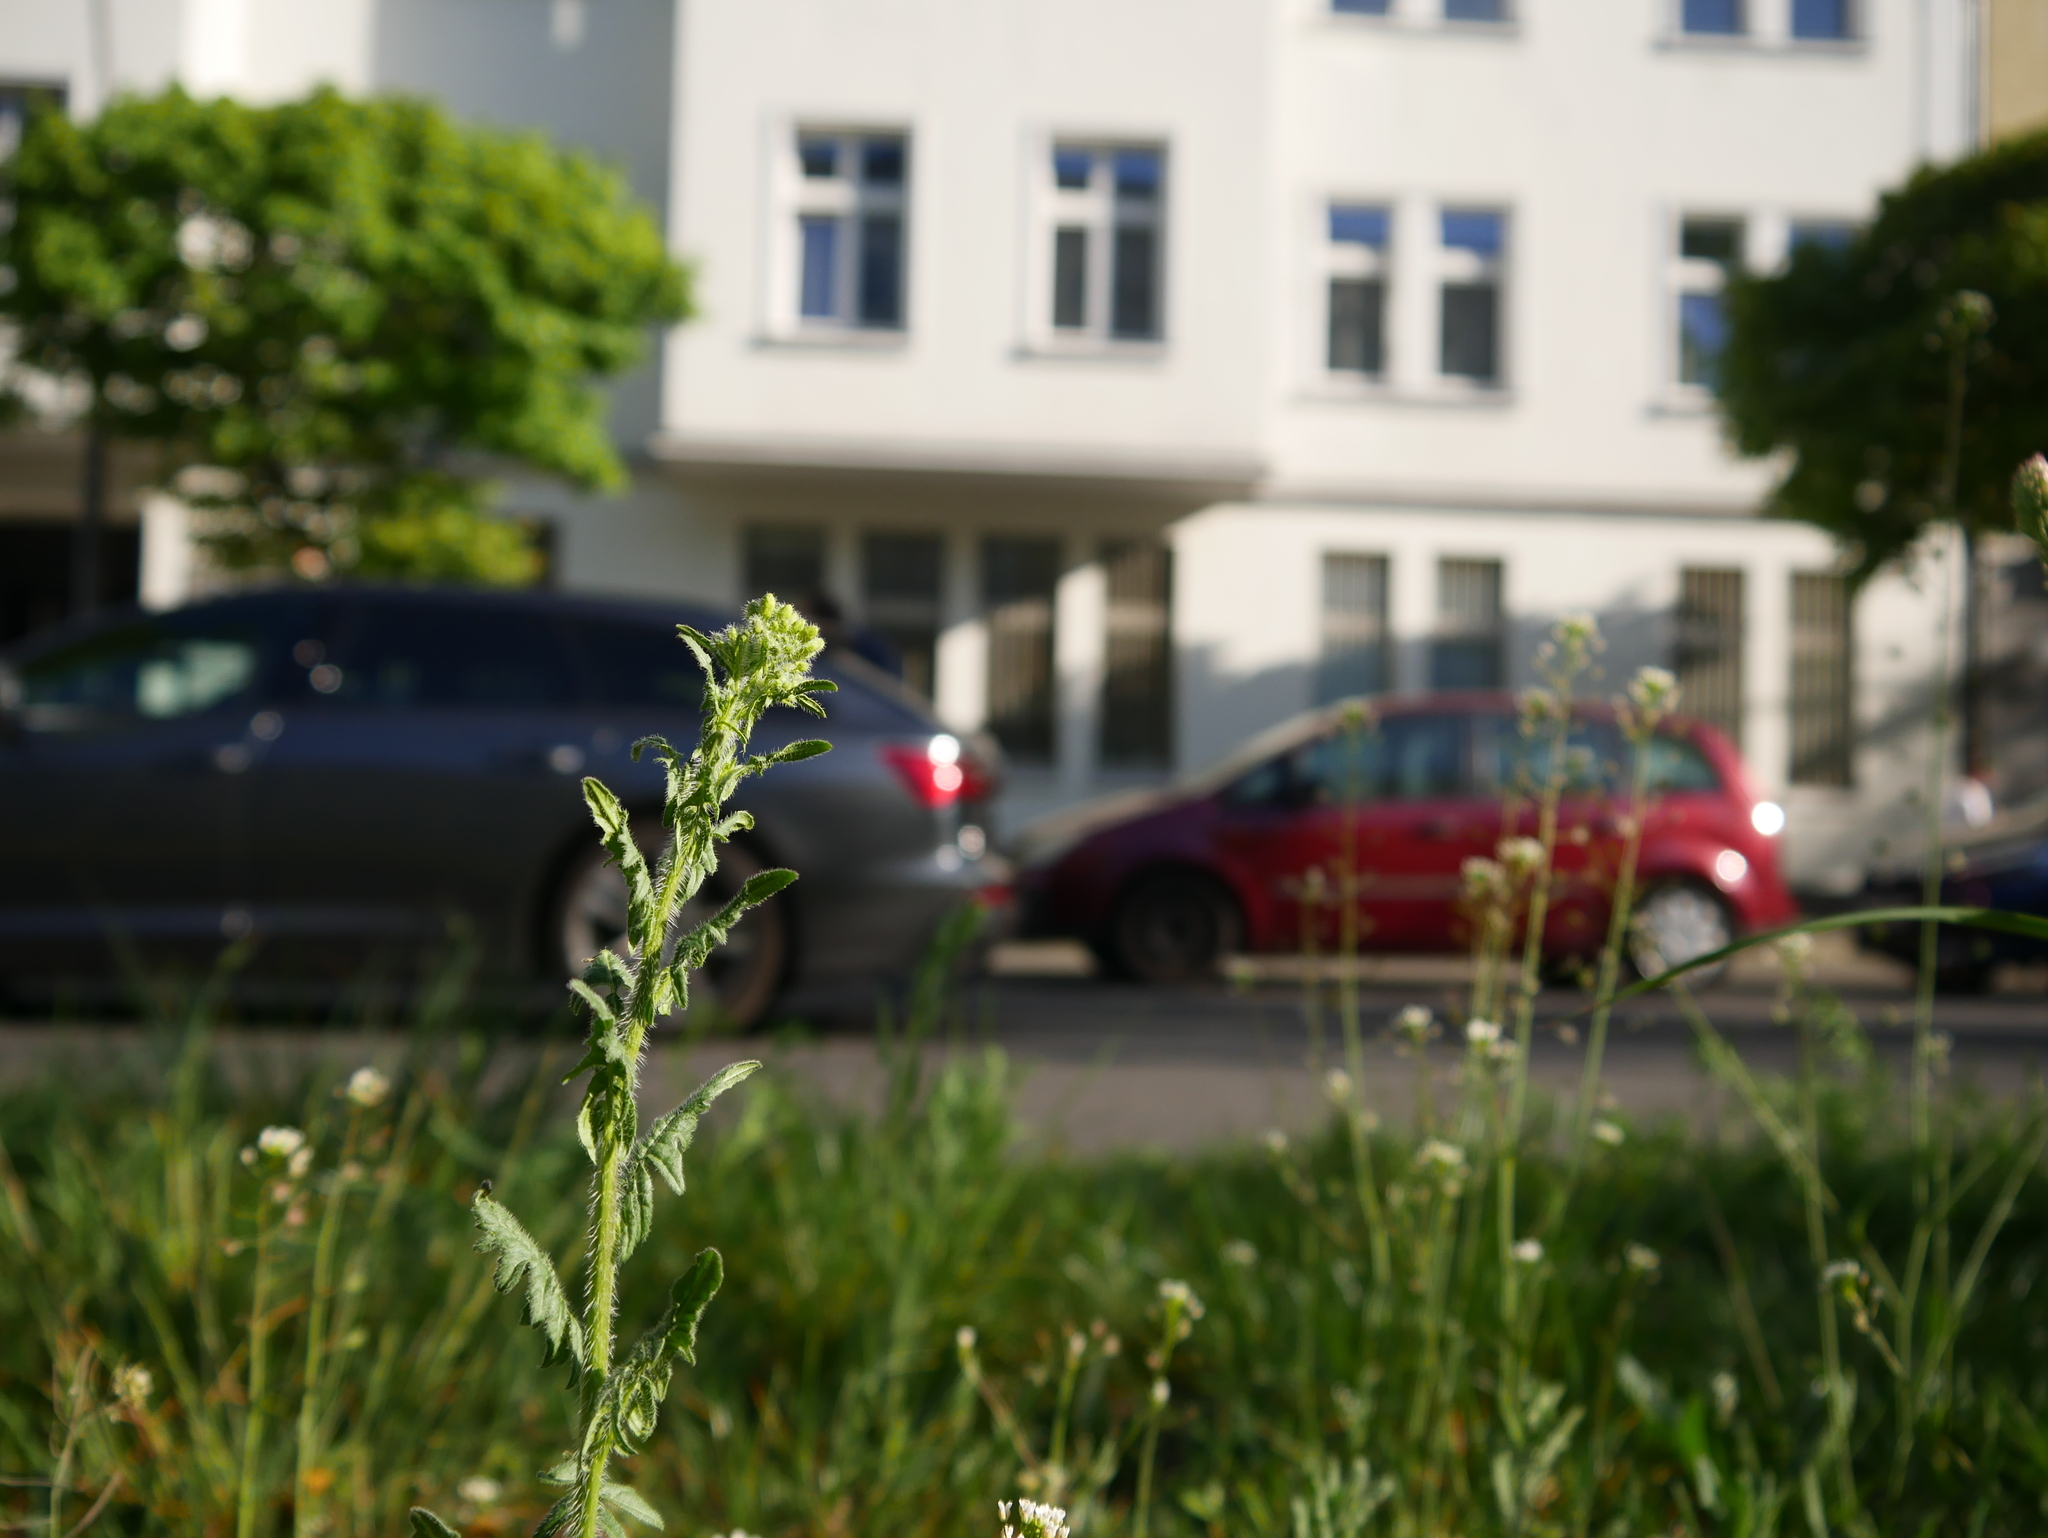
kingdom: Plantae
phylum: Tracheophyta
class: Magnoliopsida
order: Brassicales
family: Brassicaceae
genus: Sisymbrium
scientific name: Sisymbrium loeselii
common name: False london-rocket
